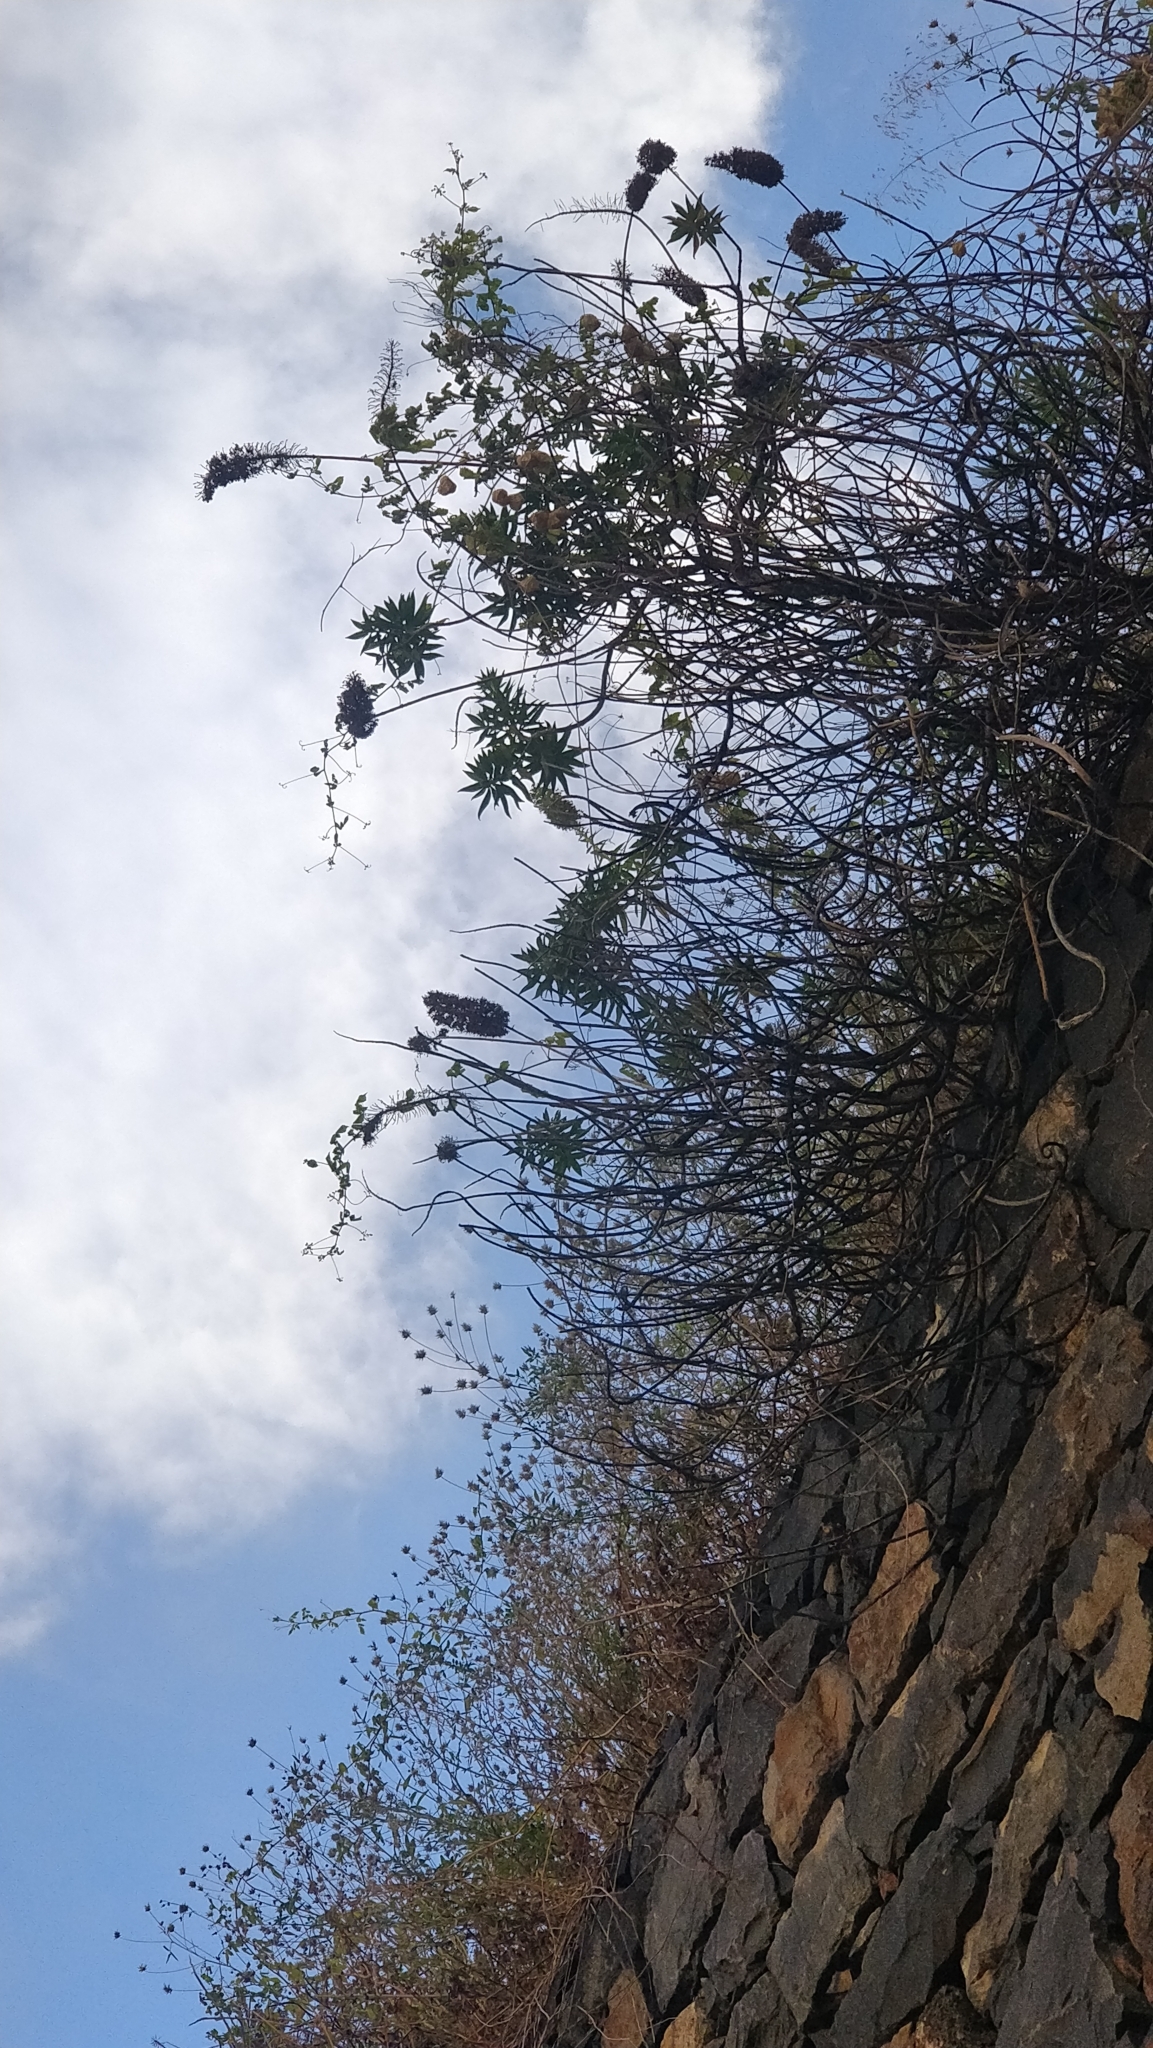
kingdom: Plantae
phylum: Tracheophyta
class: Magnoliopsida
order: Boraginales
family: Boraginaceae
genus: Echium
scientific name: Echium nervosum
